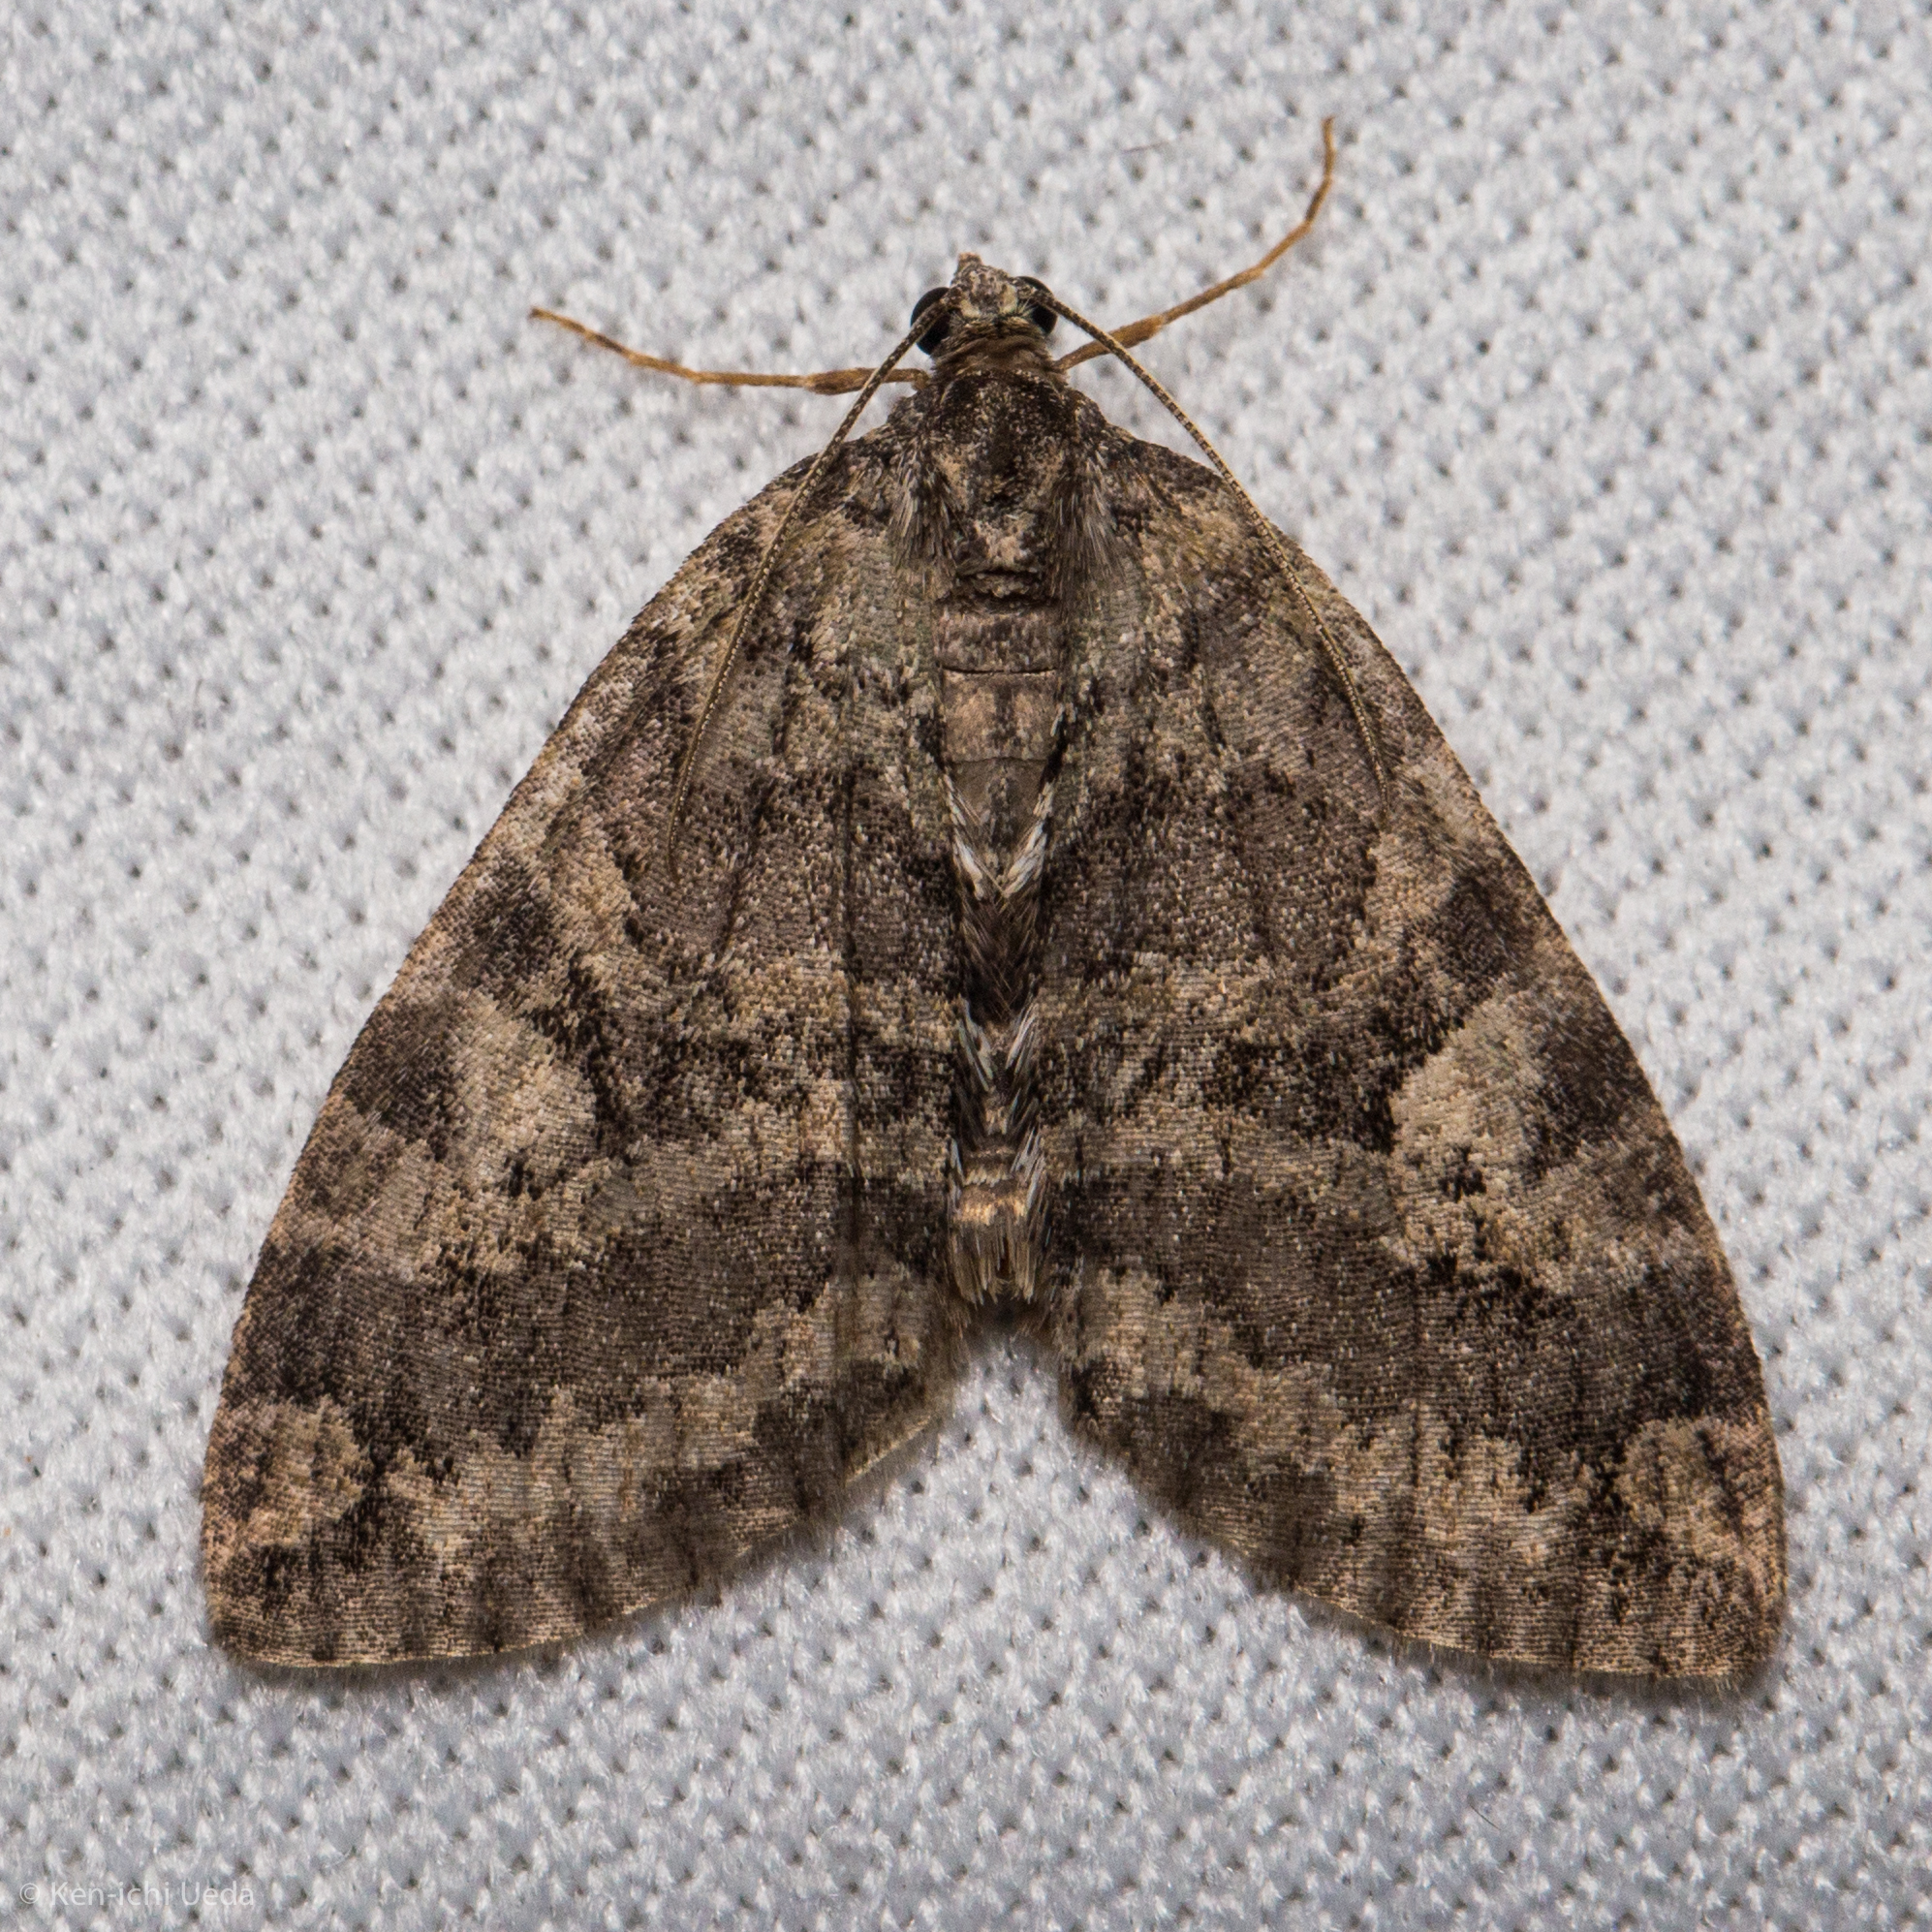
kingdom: Animalia
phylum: Arthropoda
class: Insecta
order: Lepidoptera
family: Geometridae
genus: Hydriomena
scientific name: Hydriomena nubilofasciata
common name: Oak winter highflier moth
